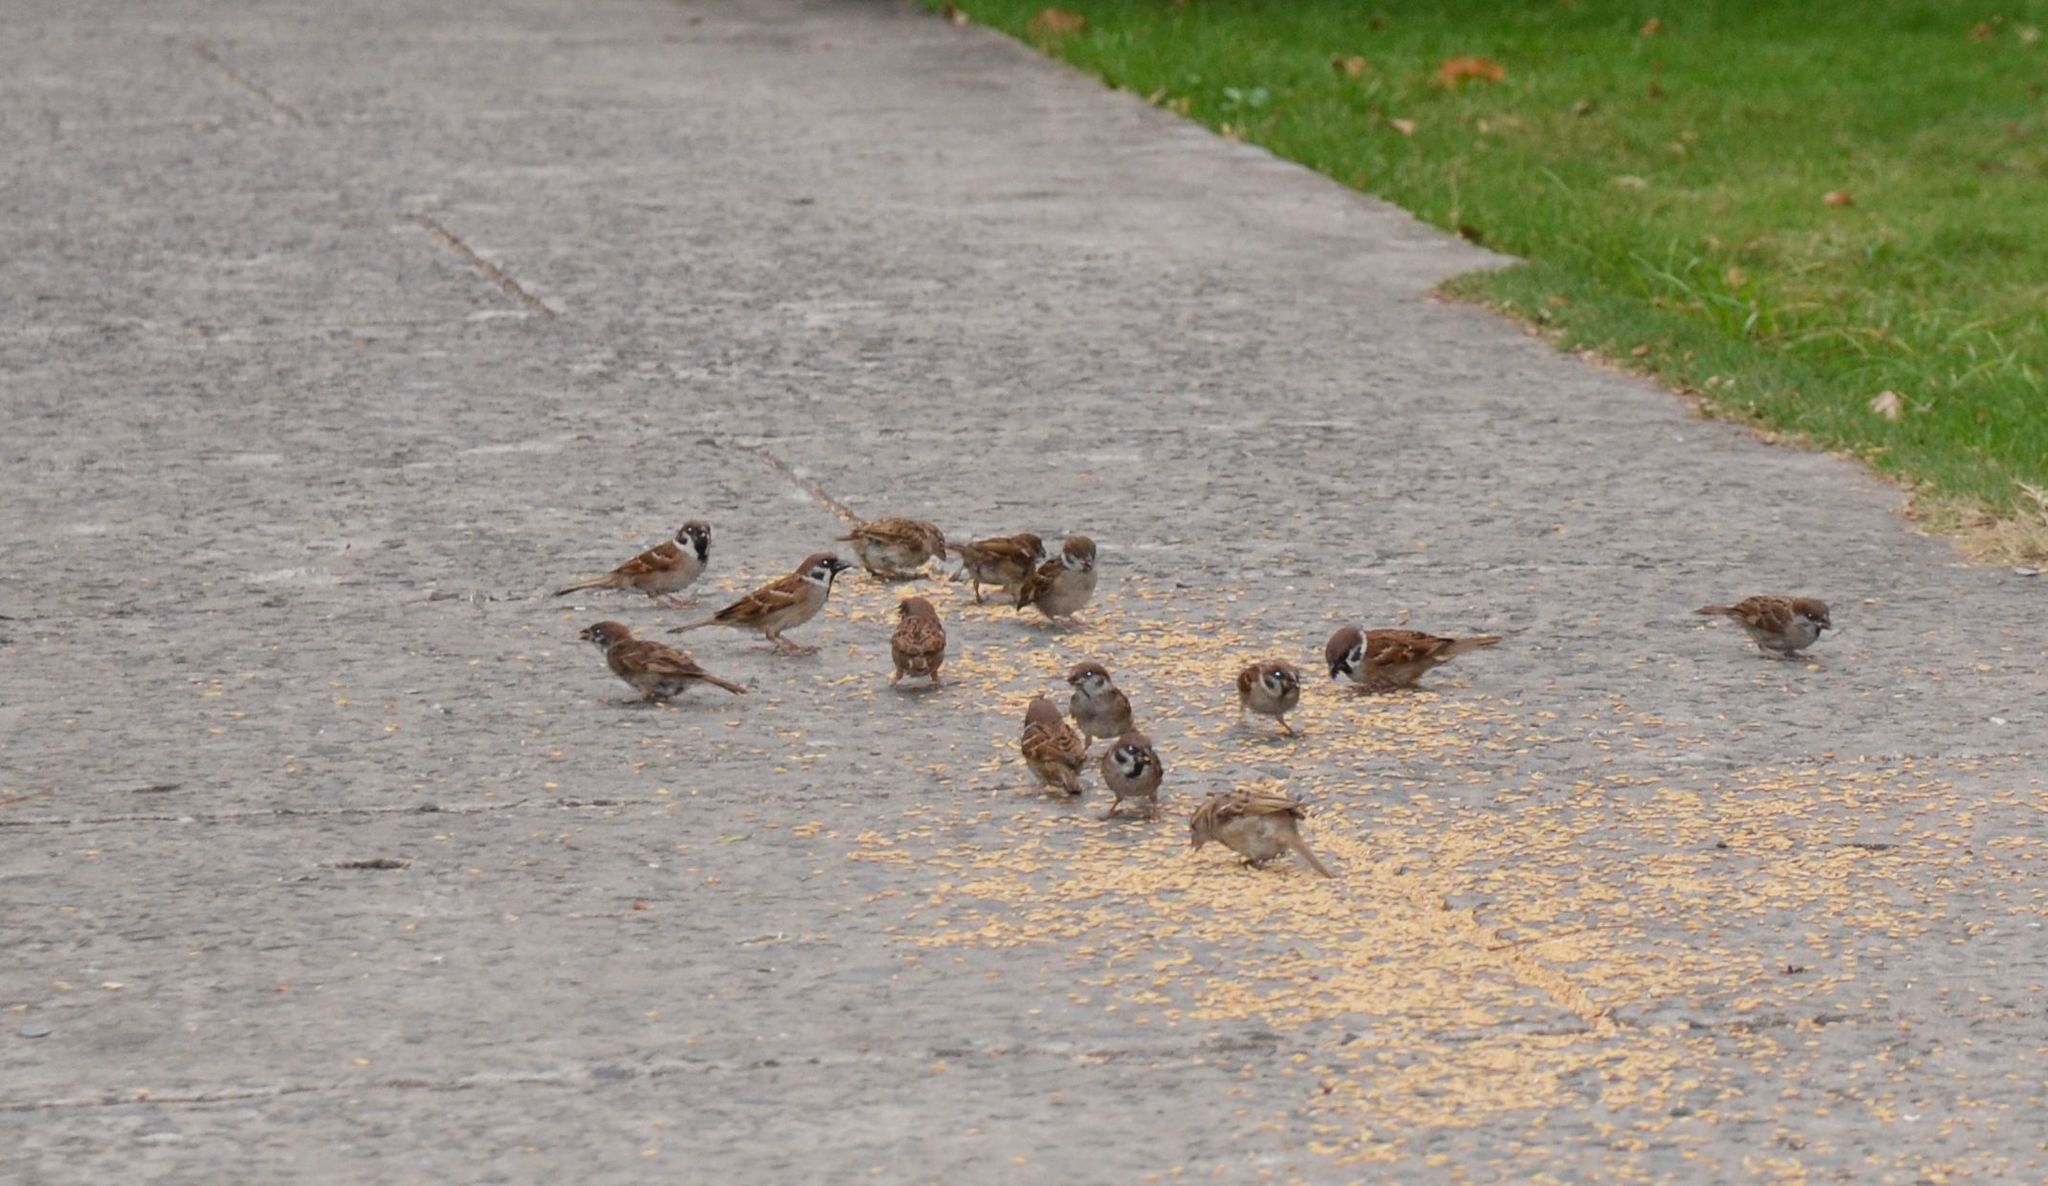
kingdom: Animalia
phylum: Chordata
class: Aves
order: Passeriformes
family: Passeridae
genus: Passer
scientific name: Passer montanus
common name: Eurasian tree sparrow
